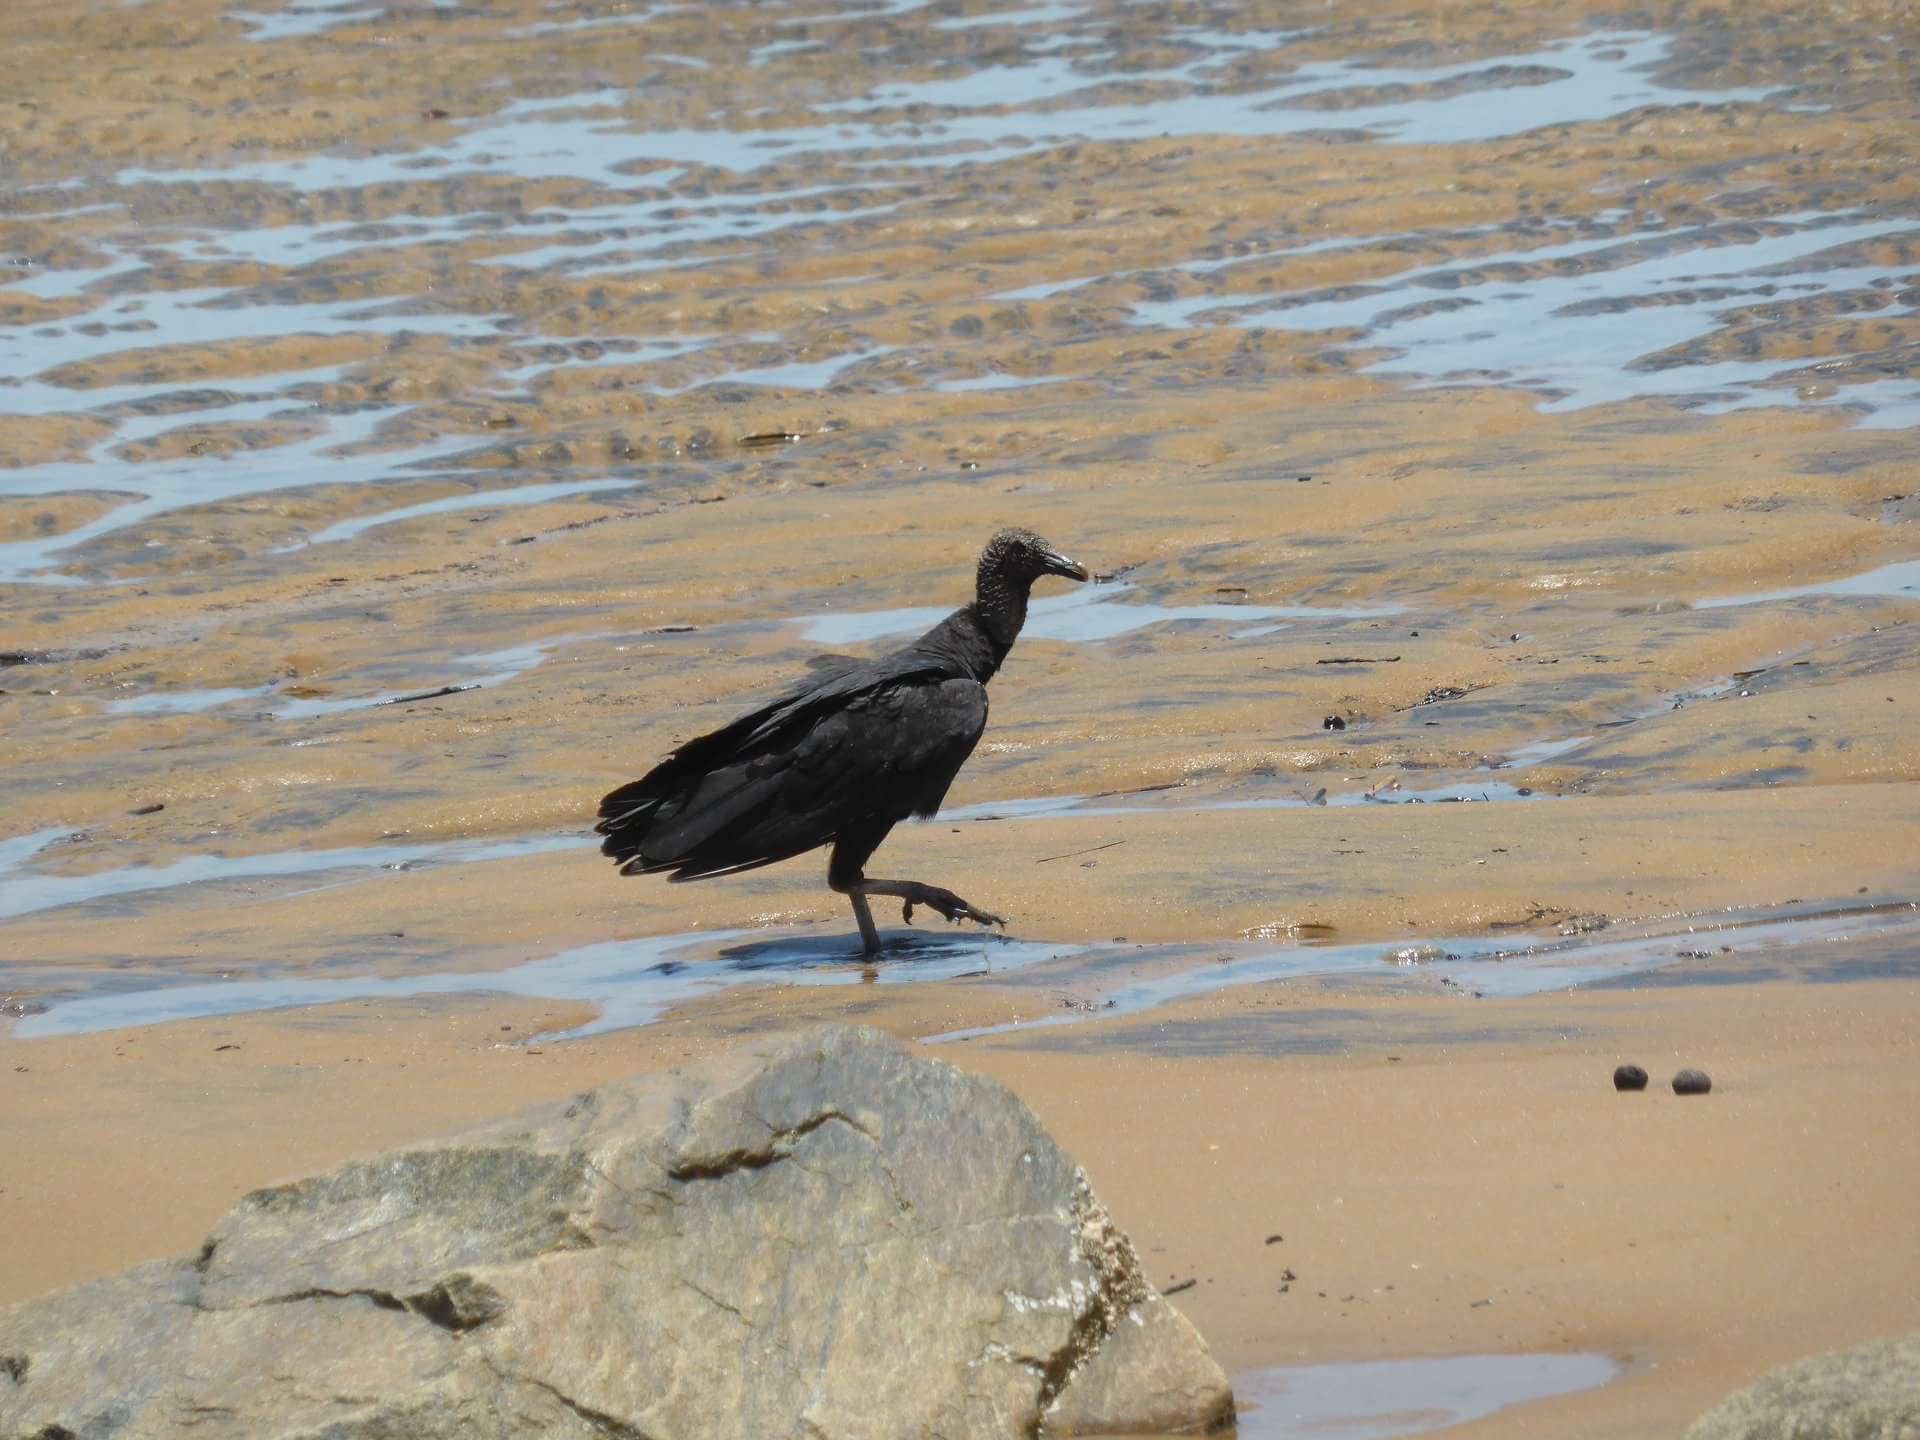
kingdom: Animalia
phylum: Chordata
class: Aves
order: Accipitriformes
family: Cathartidae
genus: Coragyps
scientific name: Coragyps atratus
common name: Black vulture
